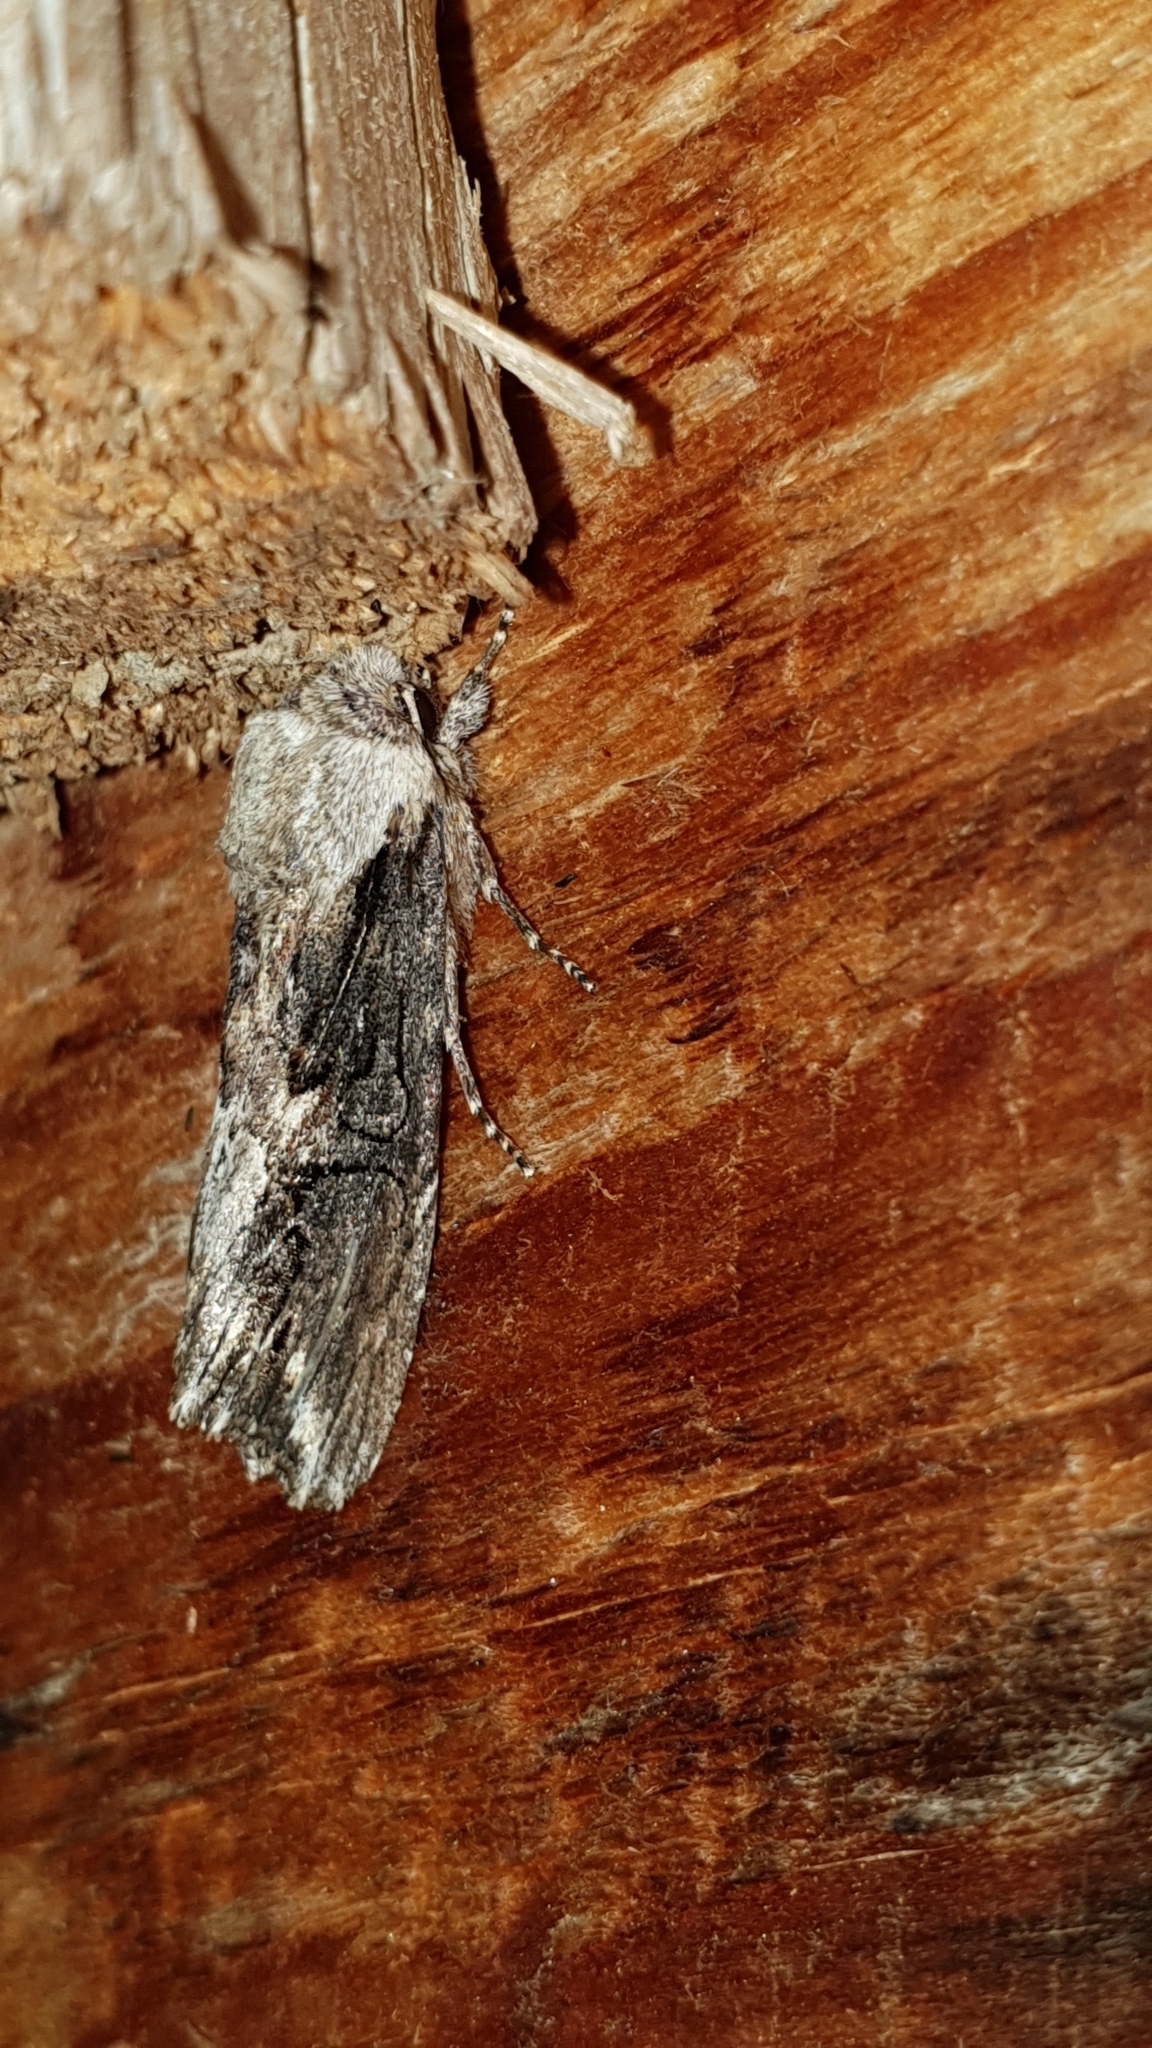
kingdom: Animalia
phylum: Arthropoda
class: Insecta
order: Lepidoptera
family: Noctuidae
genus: Egira
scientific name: Egira conspicillaris
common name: Silver cloud
